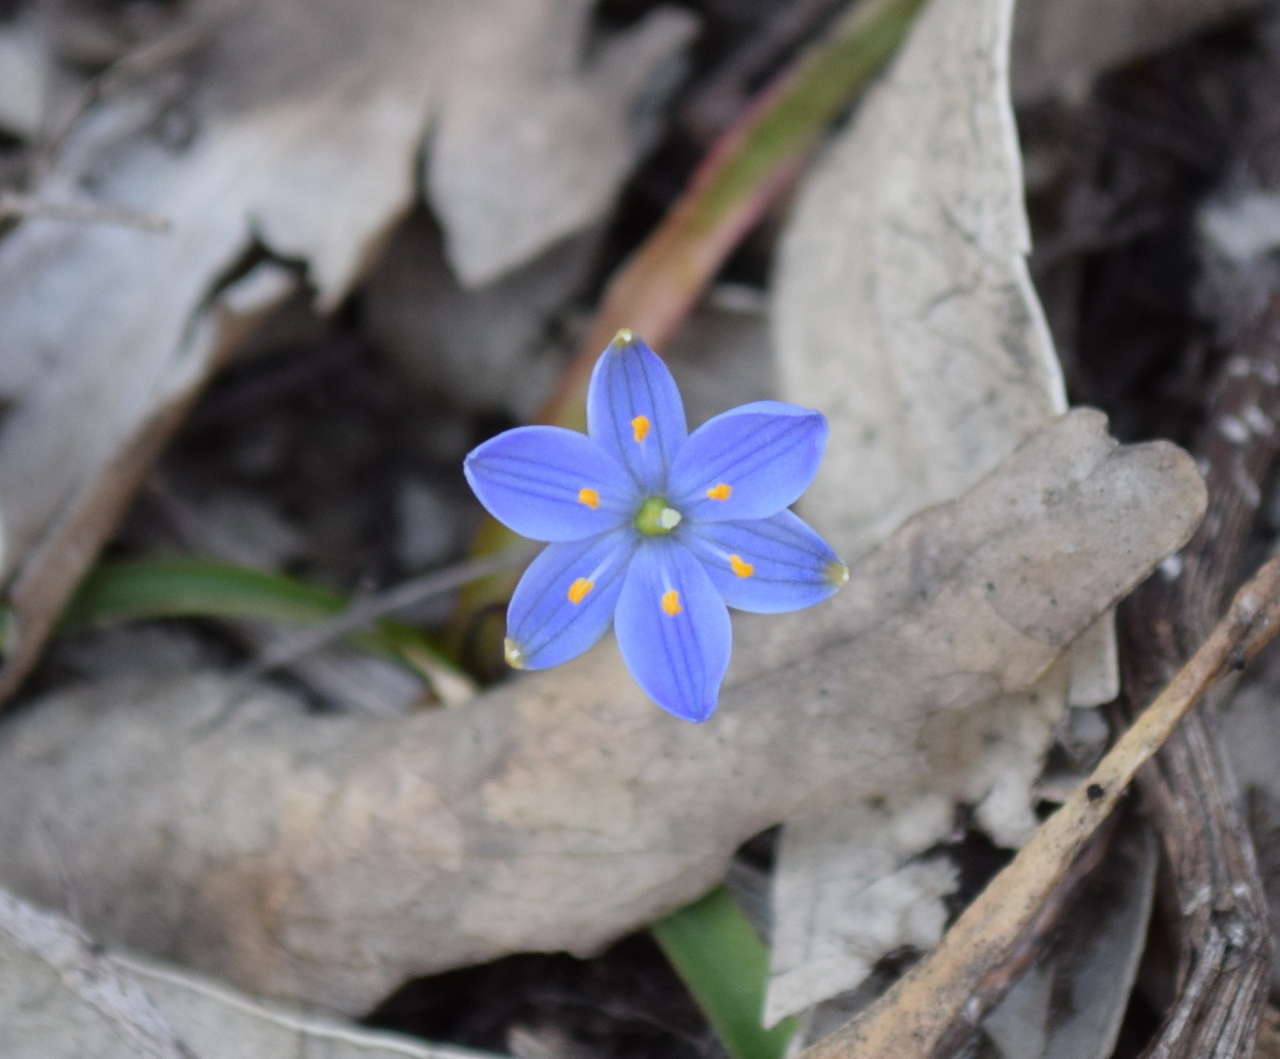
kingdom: Plantae
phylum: Tracheophyta
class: Liliopsida
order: Asparagales
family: Asphodelaceae
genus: Chamaescilla
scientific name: Chamaescilla corymbosa
